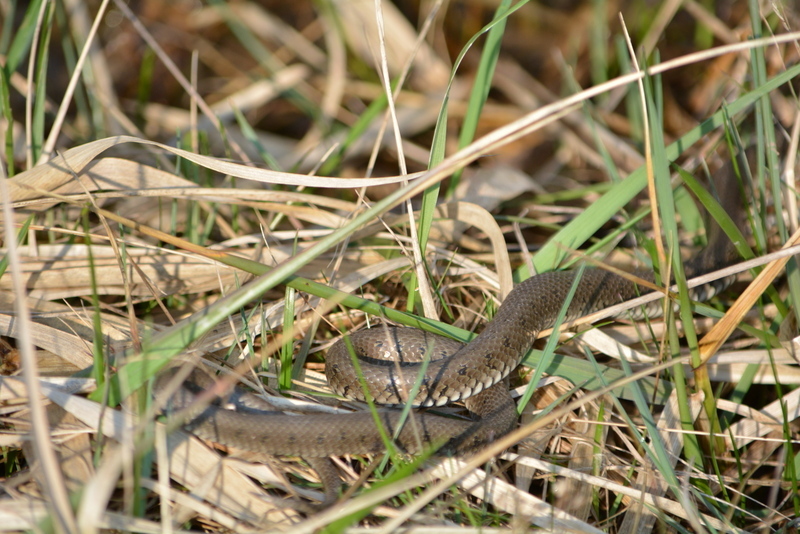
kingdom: Animalia
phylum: Chordata
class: Squamata
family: Colubridae
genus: Natrix
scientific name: Natrix natrix
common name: Grass snake
